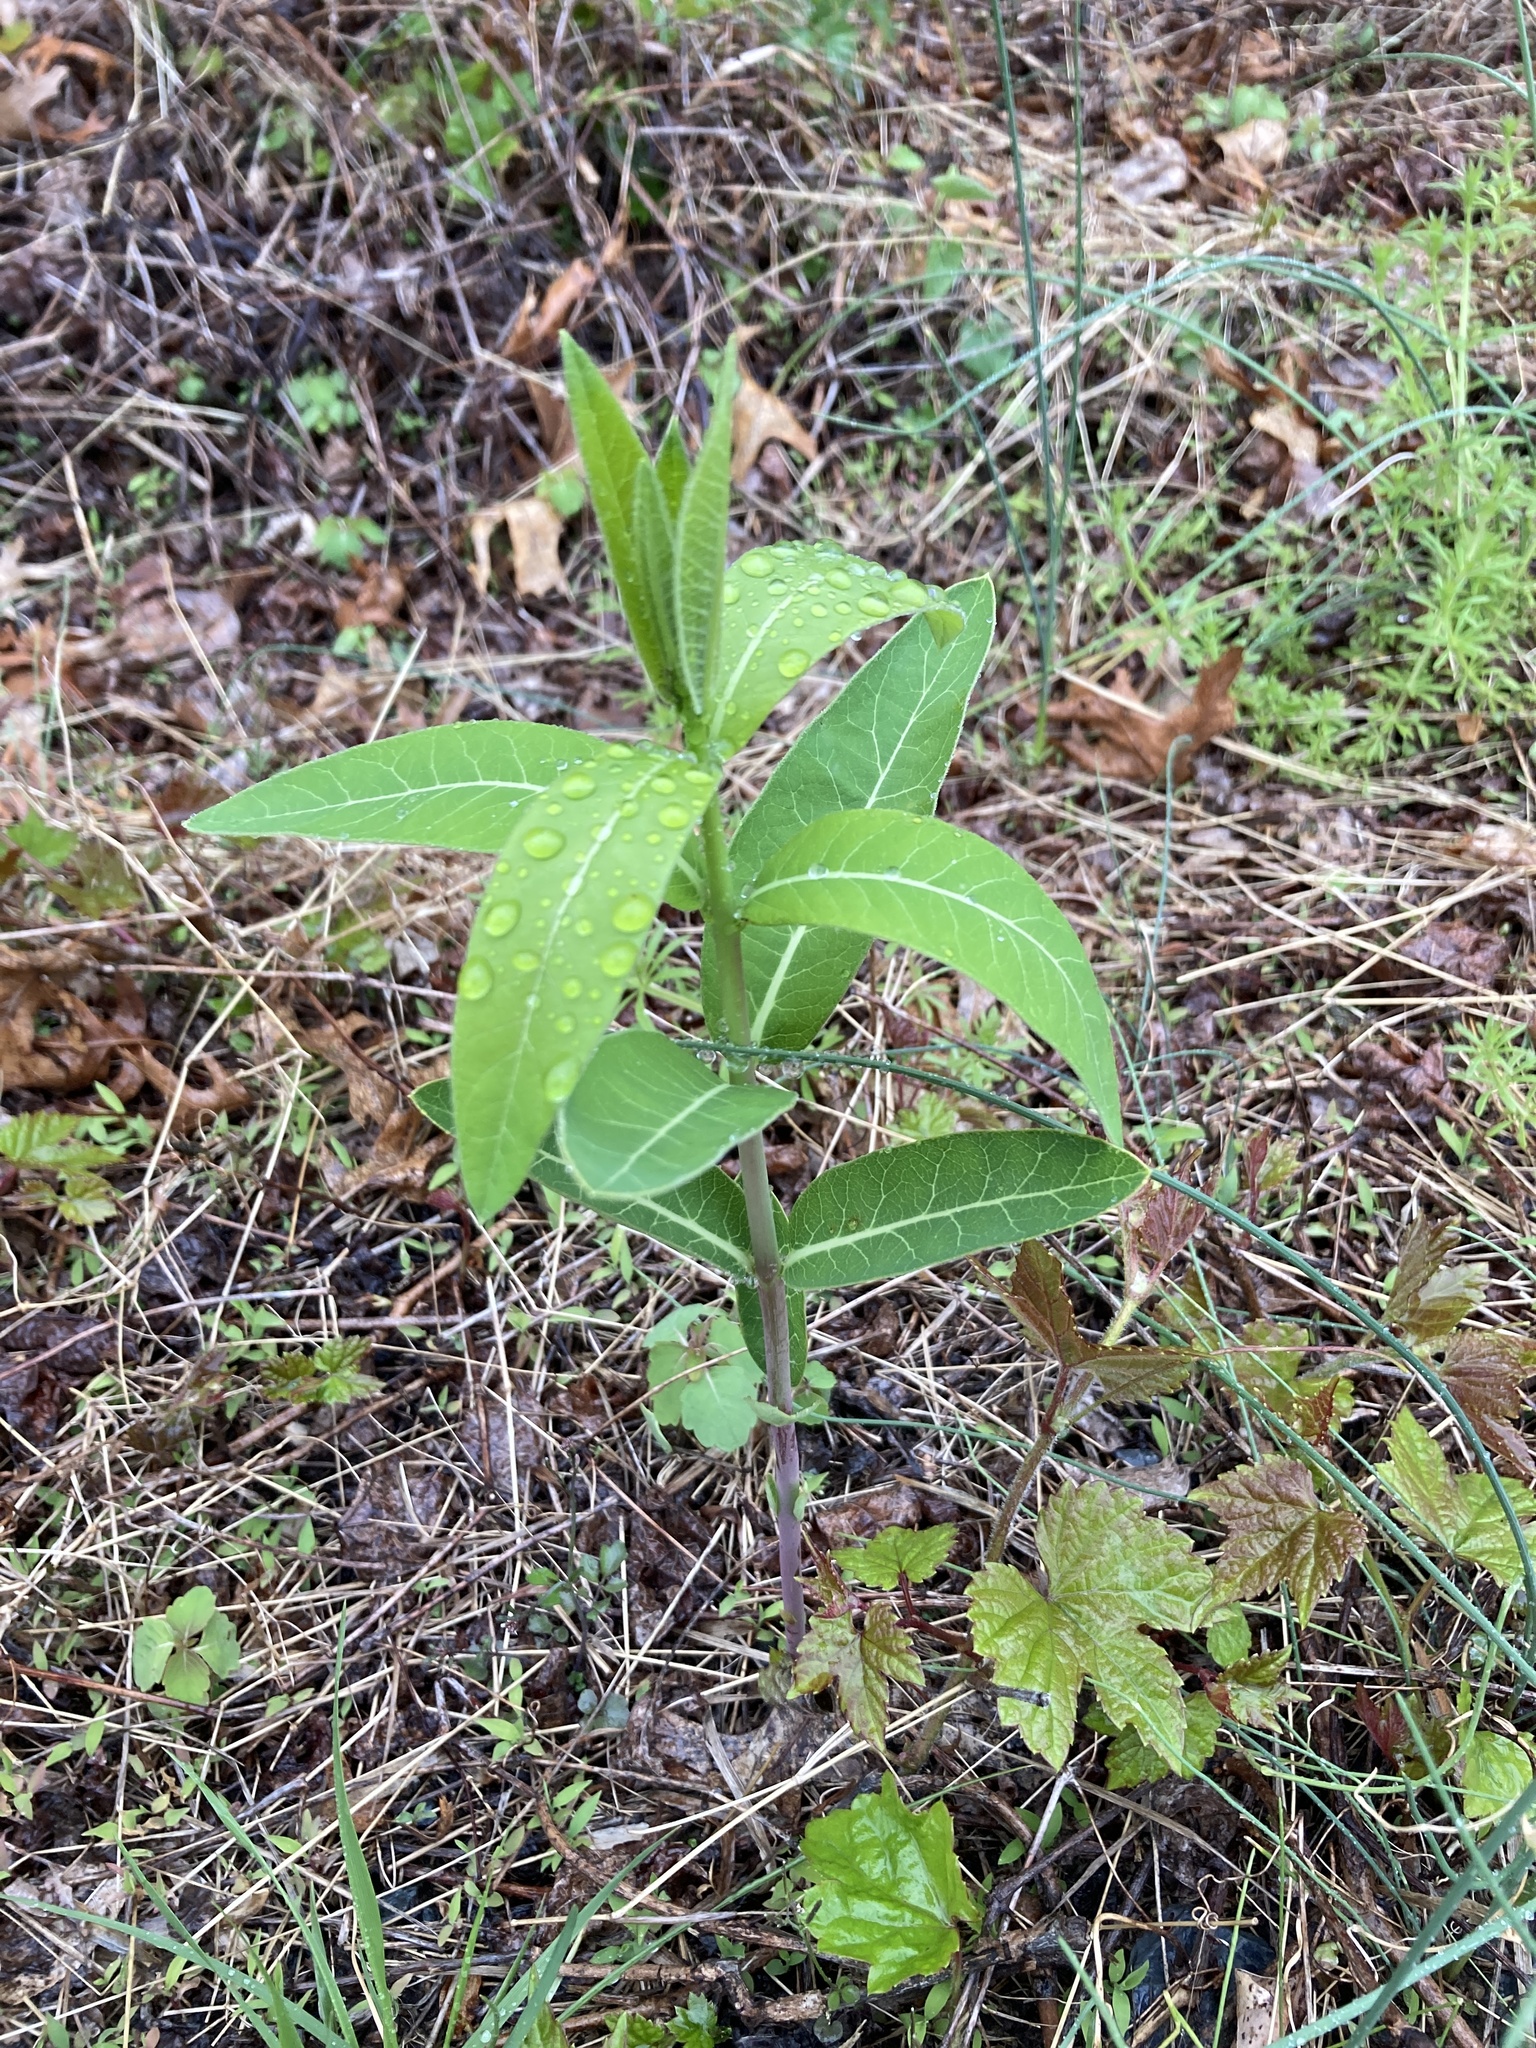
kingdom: Plantae
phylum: Tracheophyta
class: Magnoliopsida
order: Gentianales
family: Apocynaceae
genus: Apocynum
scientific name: Apocynum cannabinum
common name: Hemp dogbane
